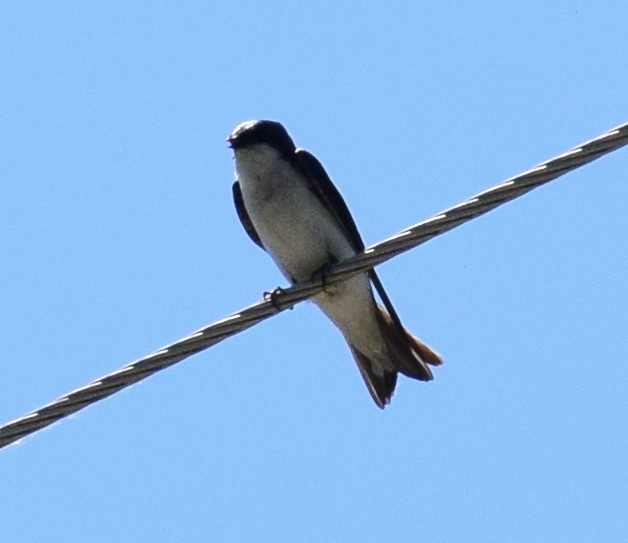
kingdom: Animalia
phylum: Chordata
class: Aves
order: Passeriformes
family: Hirundinidae
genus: Tachycineta
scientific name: Tachycineta bicolor
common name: Tree swallow
